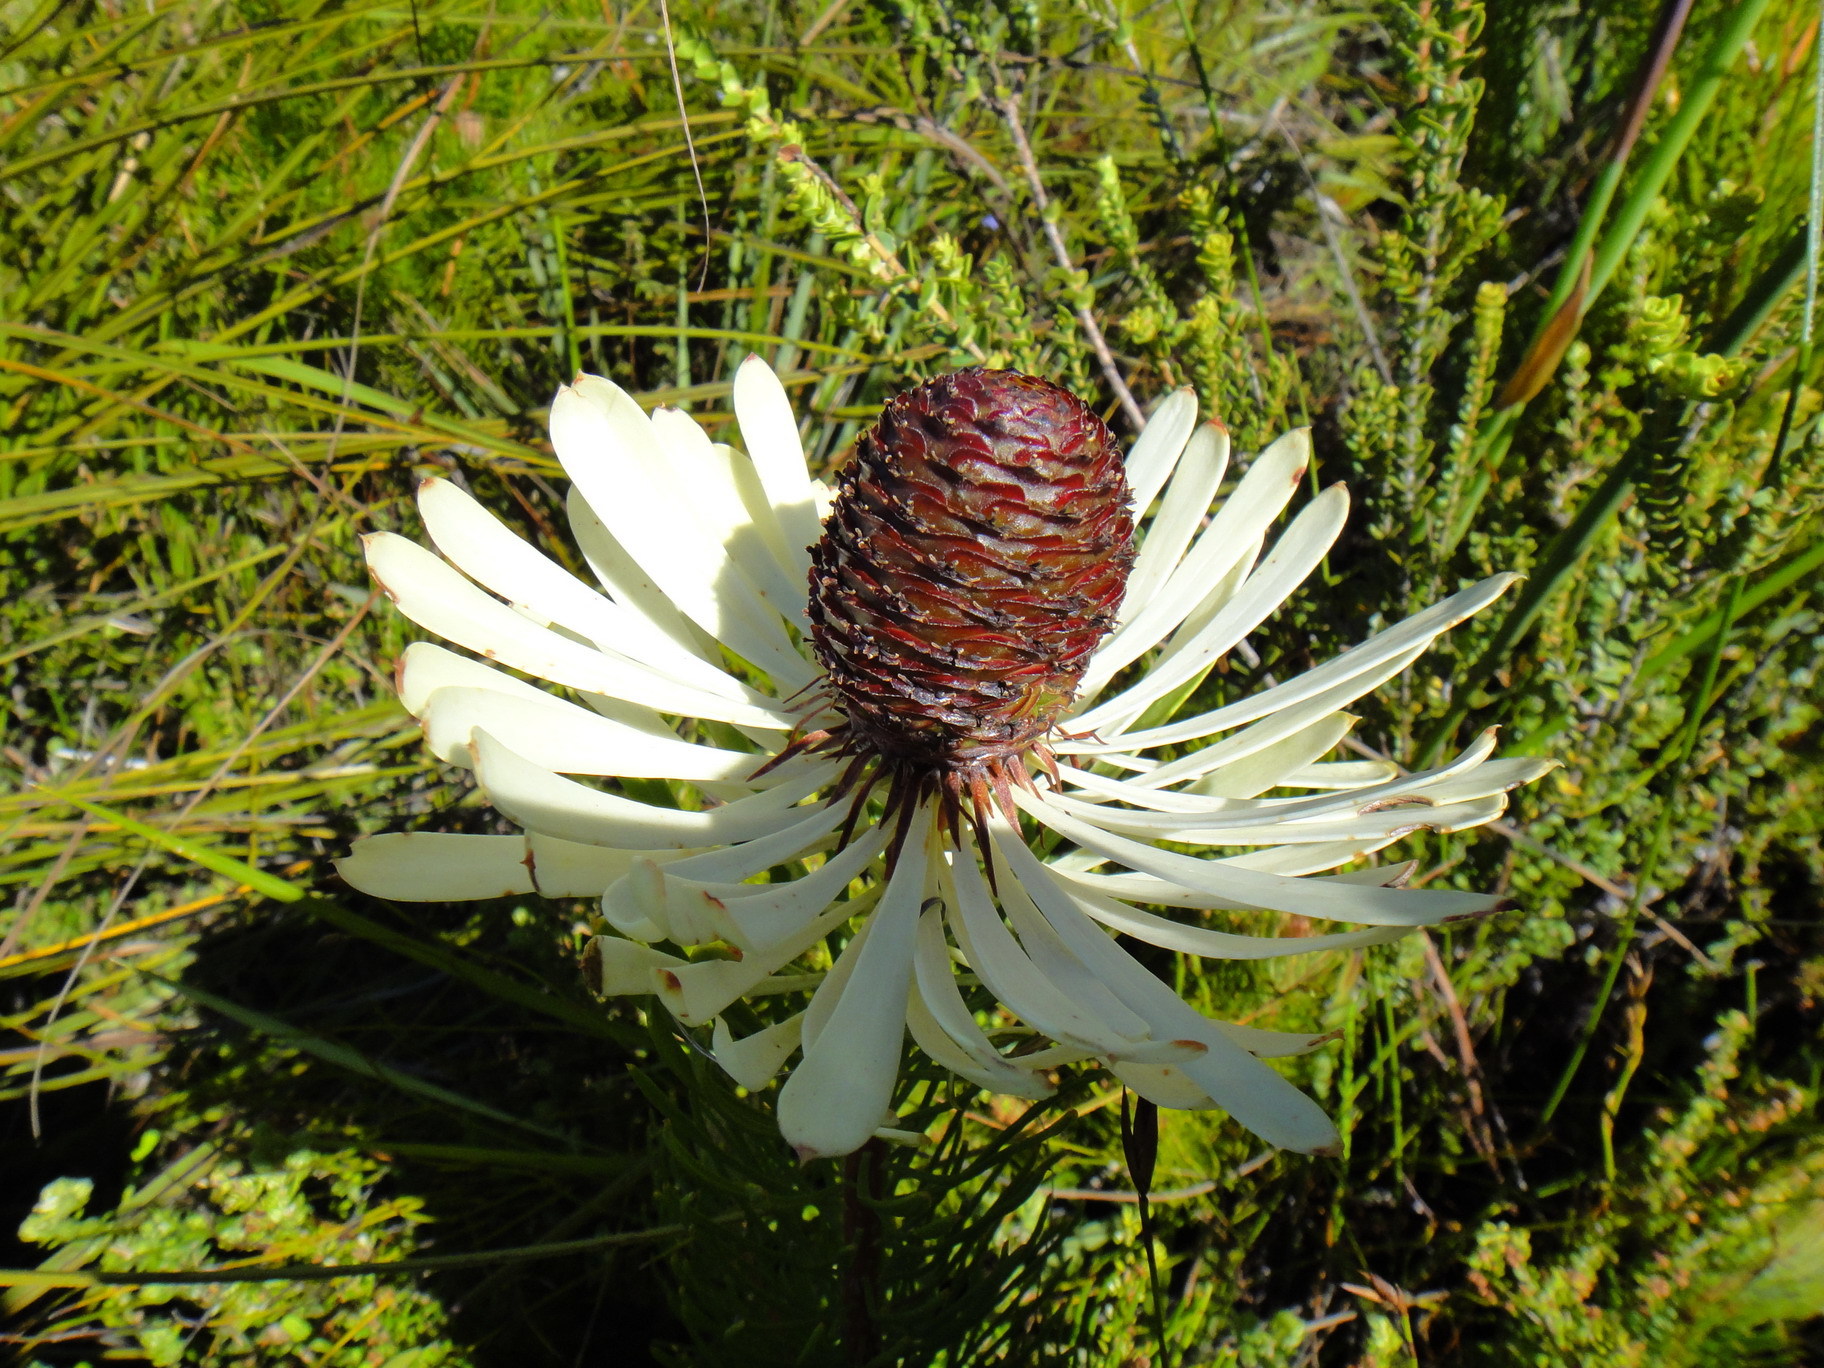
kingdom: Plantae
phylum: Tracheophyta
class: Magnoliopsida
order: Proteales
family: Proteaceae
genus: Leucadendron
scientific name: Leucadendron comosum
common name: Ridge-cone conebush
